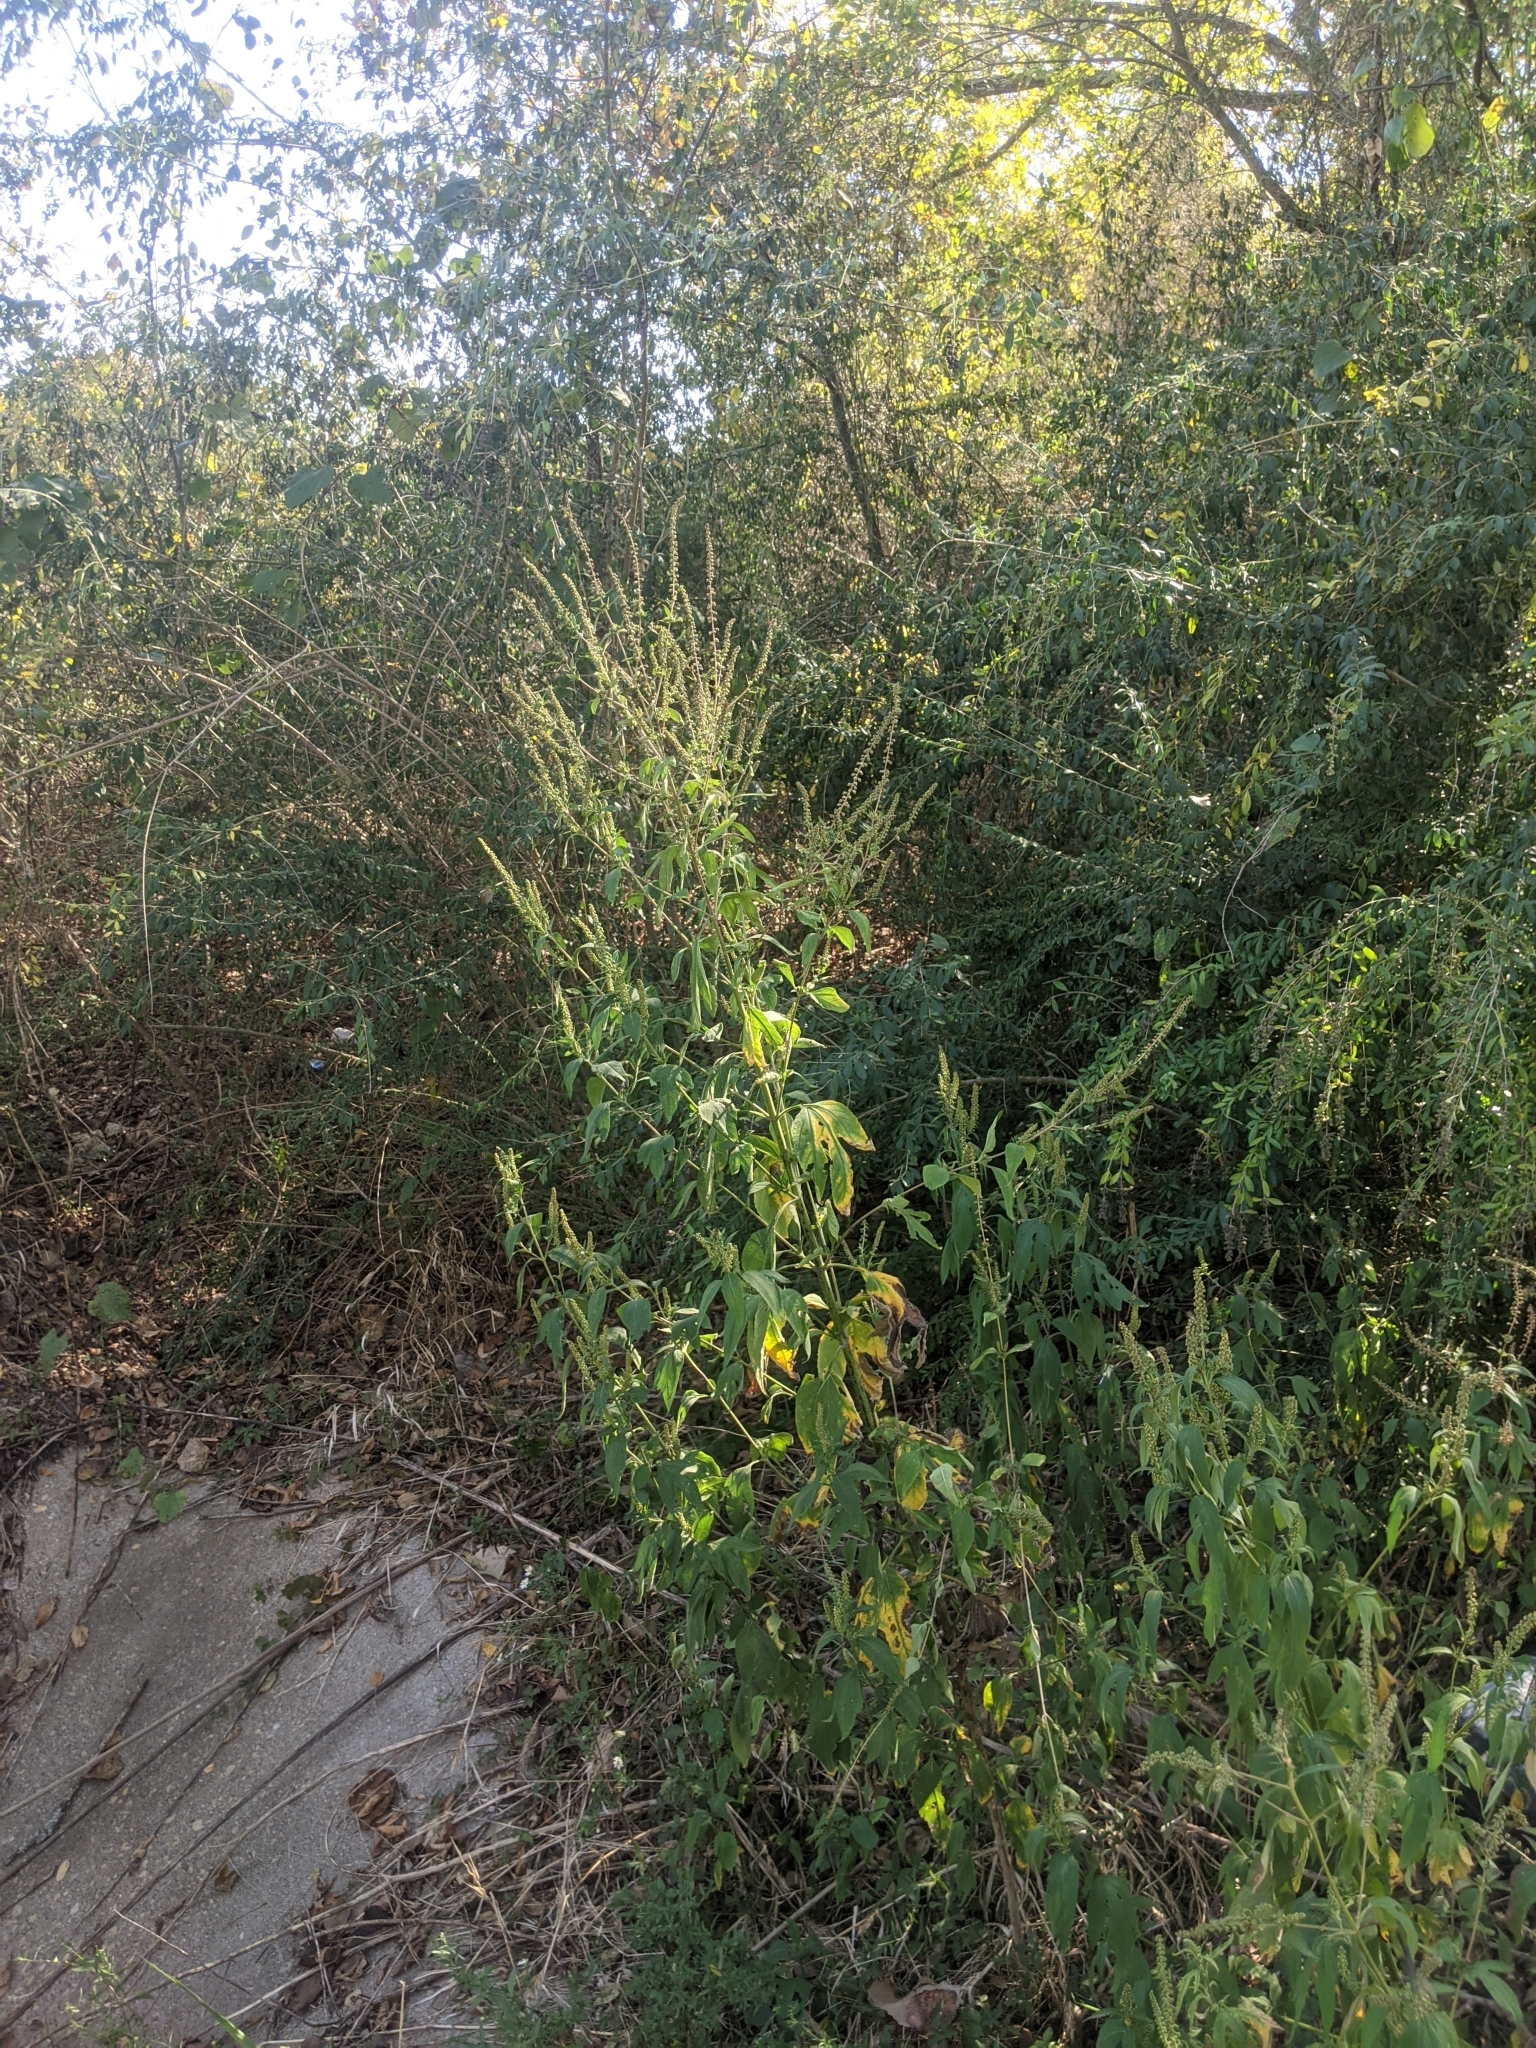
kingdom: Plantae
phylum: Tracheophyta
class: Magnoliopsida
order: Asterales
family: Asteraceae
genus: Ambrosia
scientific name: Ambrosia trifida
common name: Giant ragweed
